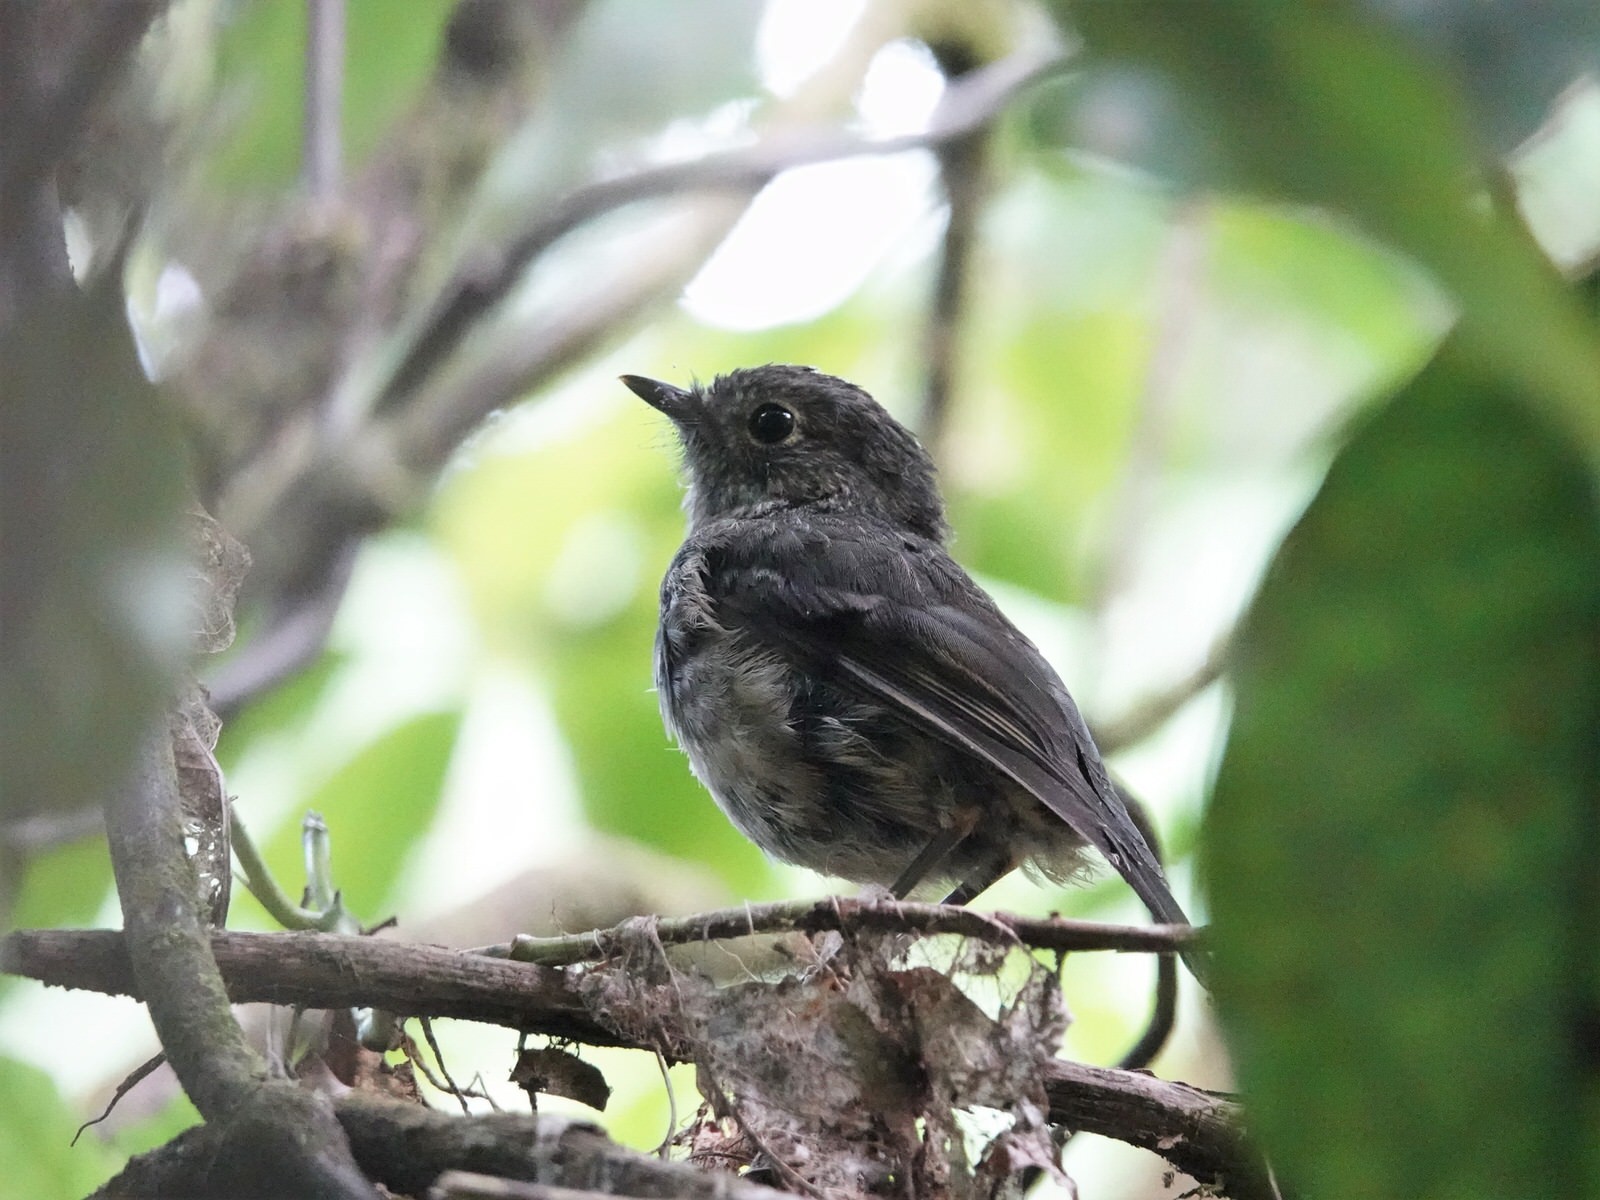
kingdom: Animalia
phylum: Chordata
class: Aves
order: Passeriformes
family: Petroicidae
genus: Petroica
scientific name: Petroica australis
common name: New zealand robin
